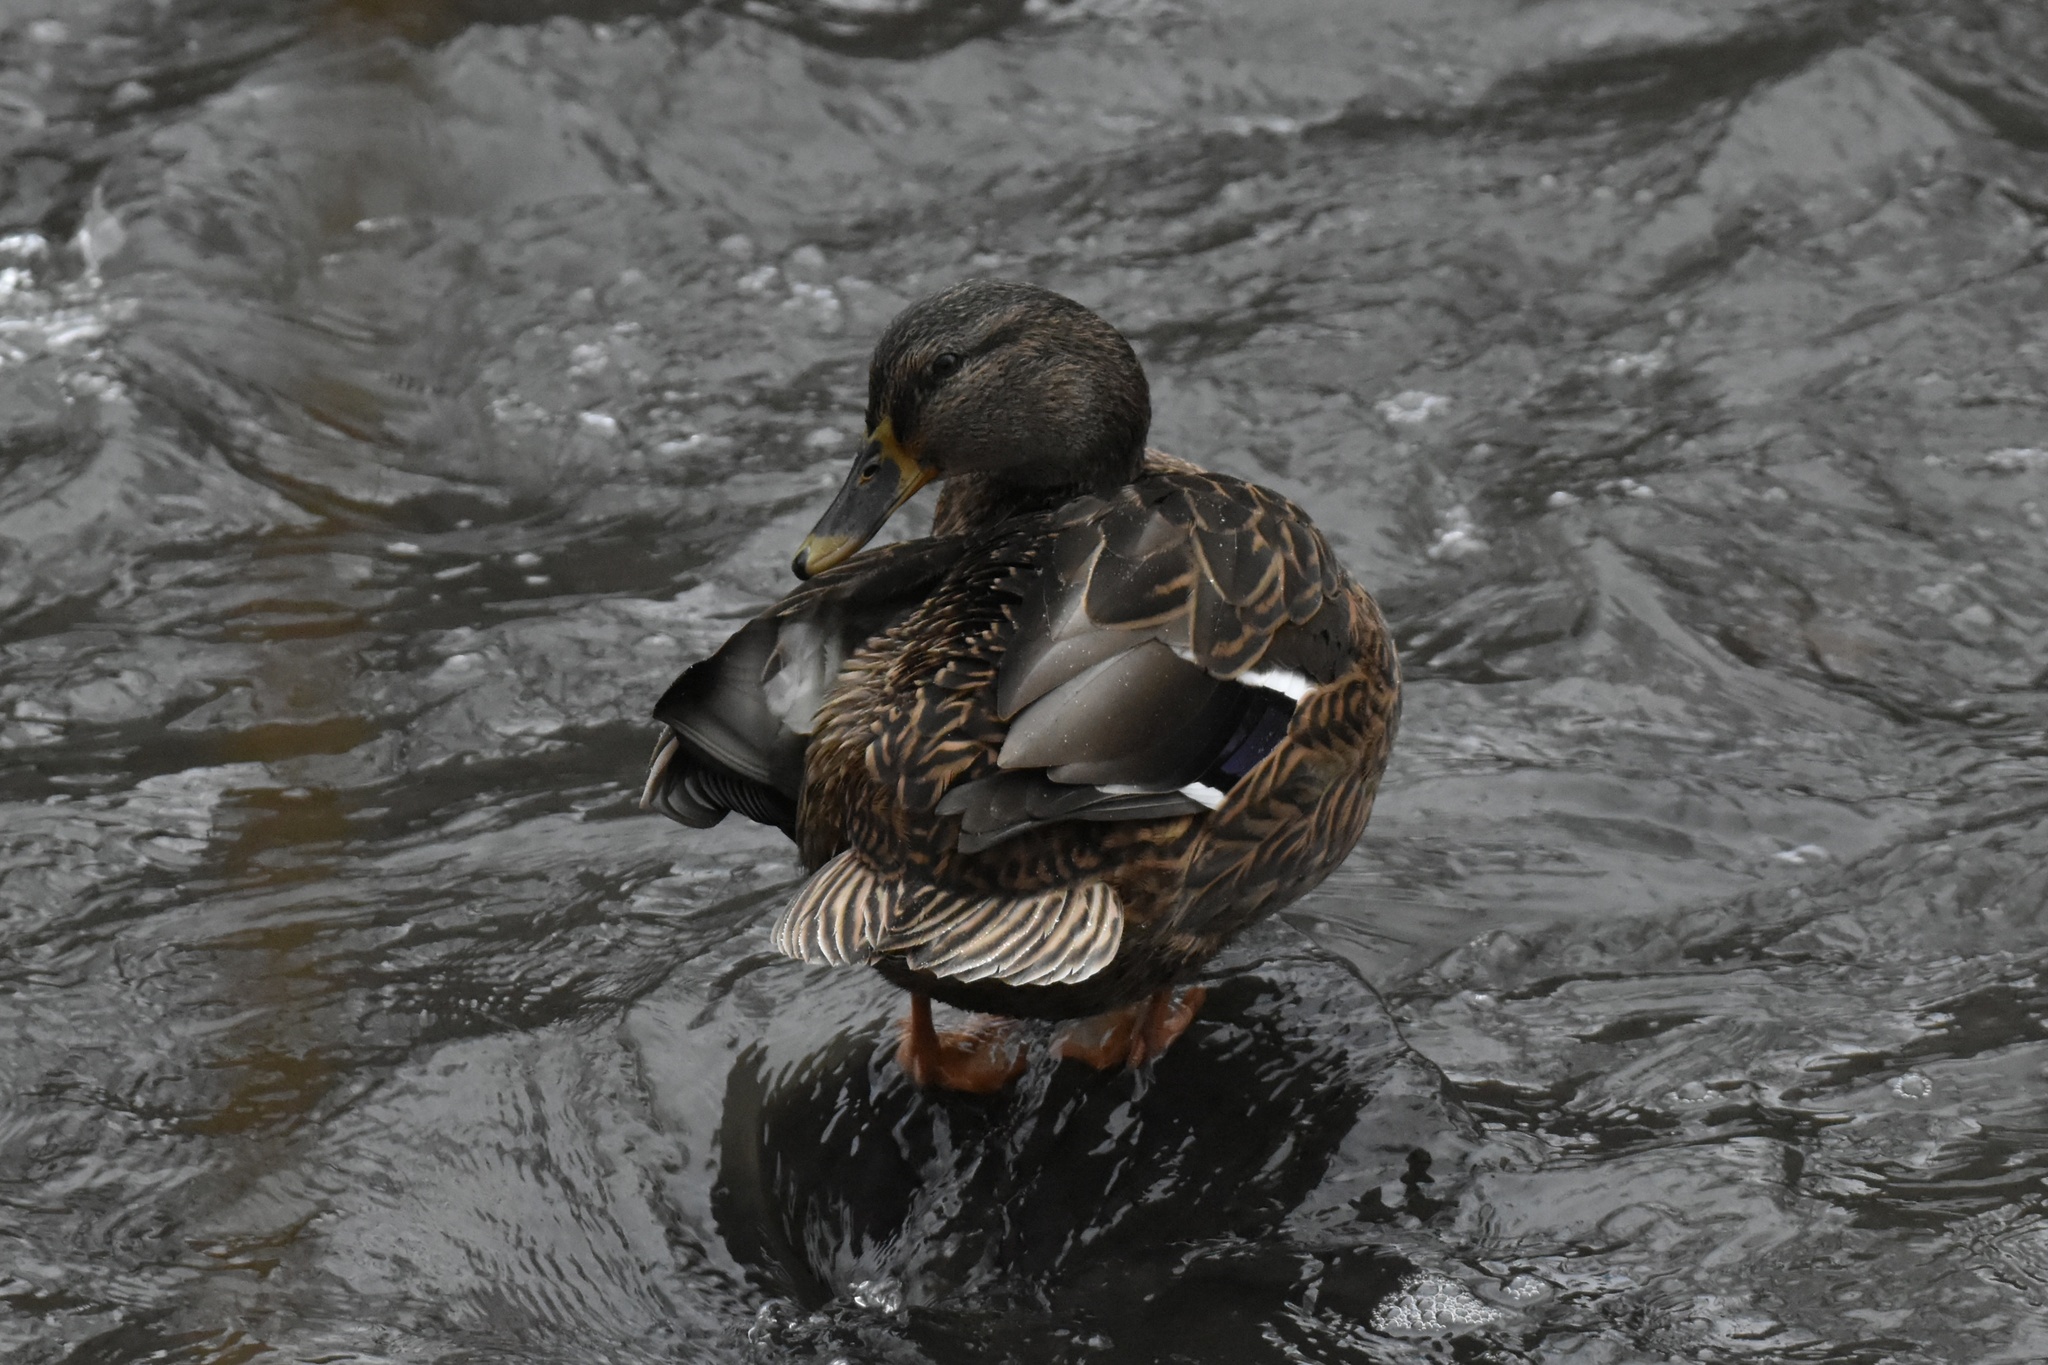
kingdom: Animalia
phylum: Chordata
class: Aves
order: Anseriformes
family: Anatidae
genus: Anas
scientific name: Anas platyrhynchos
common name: Mallard
